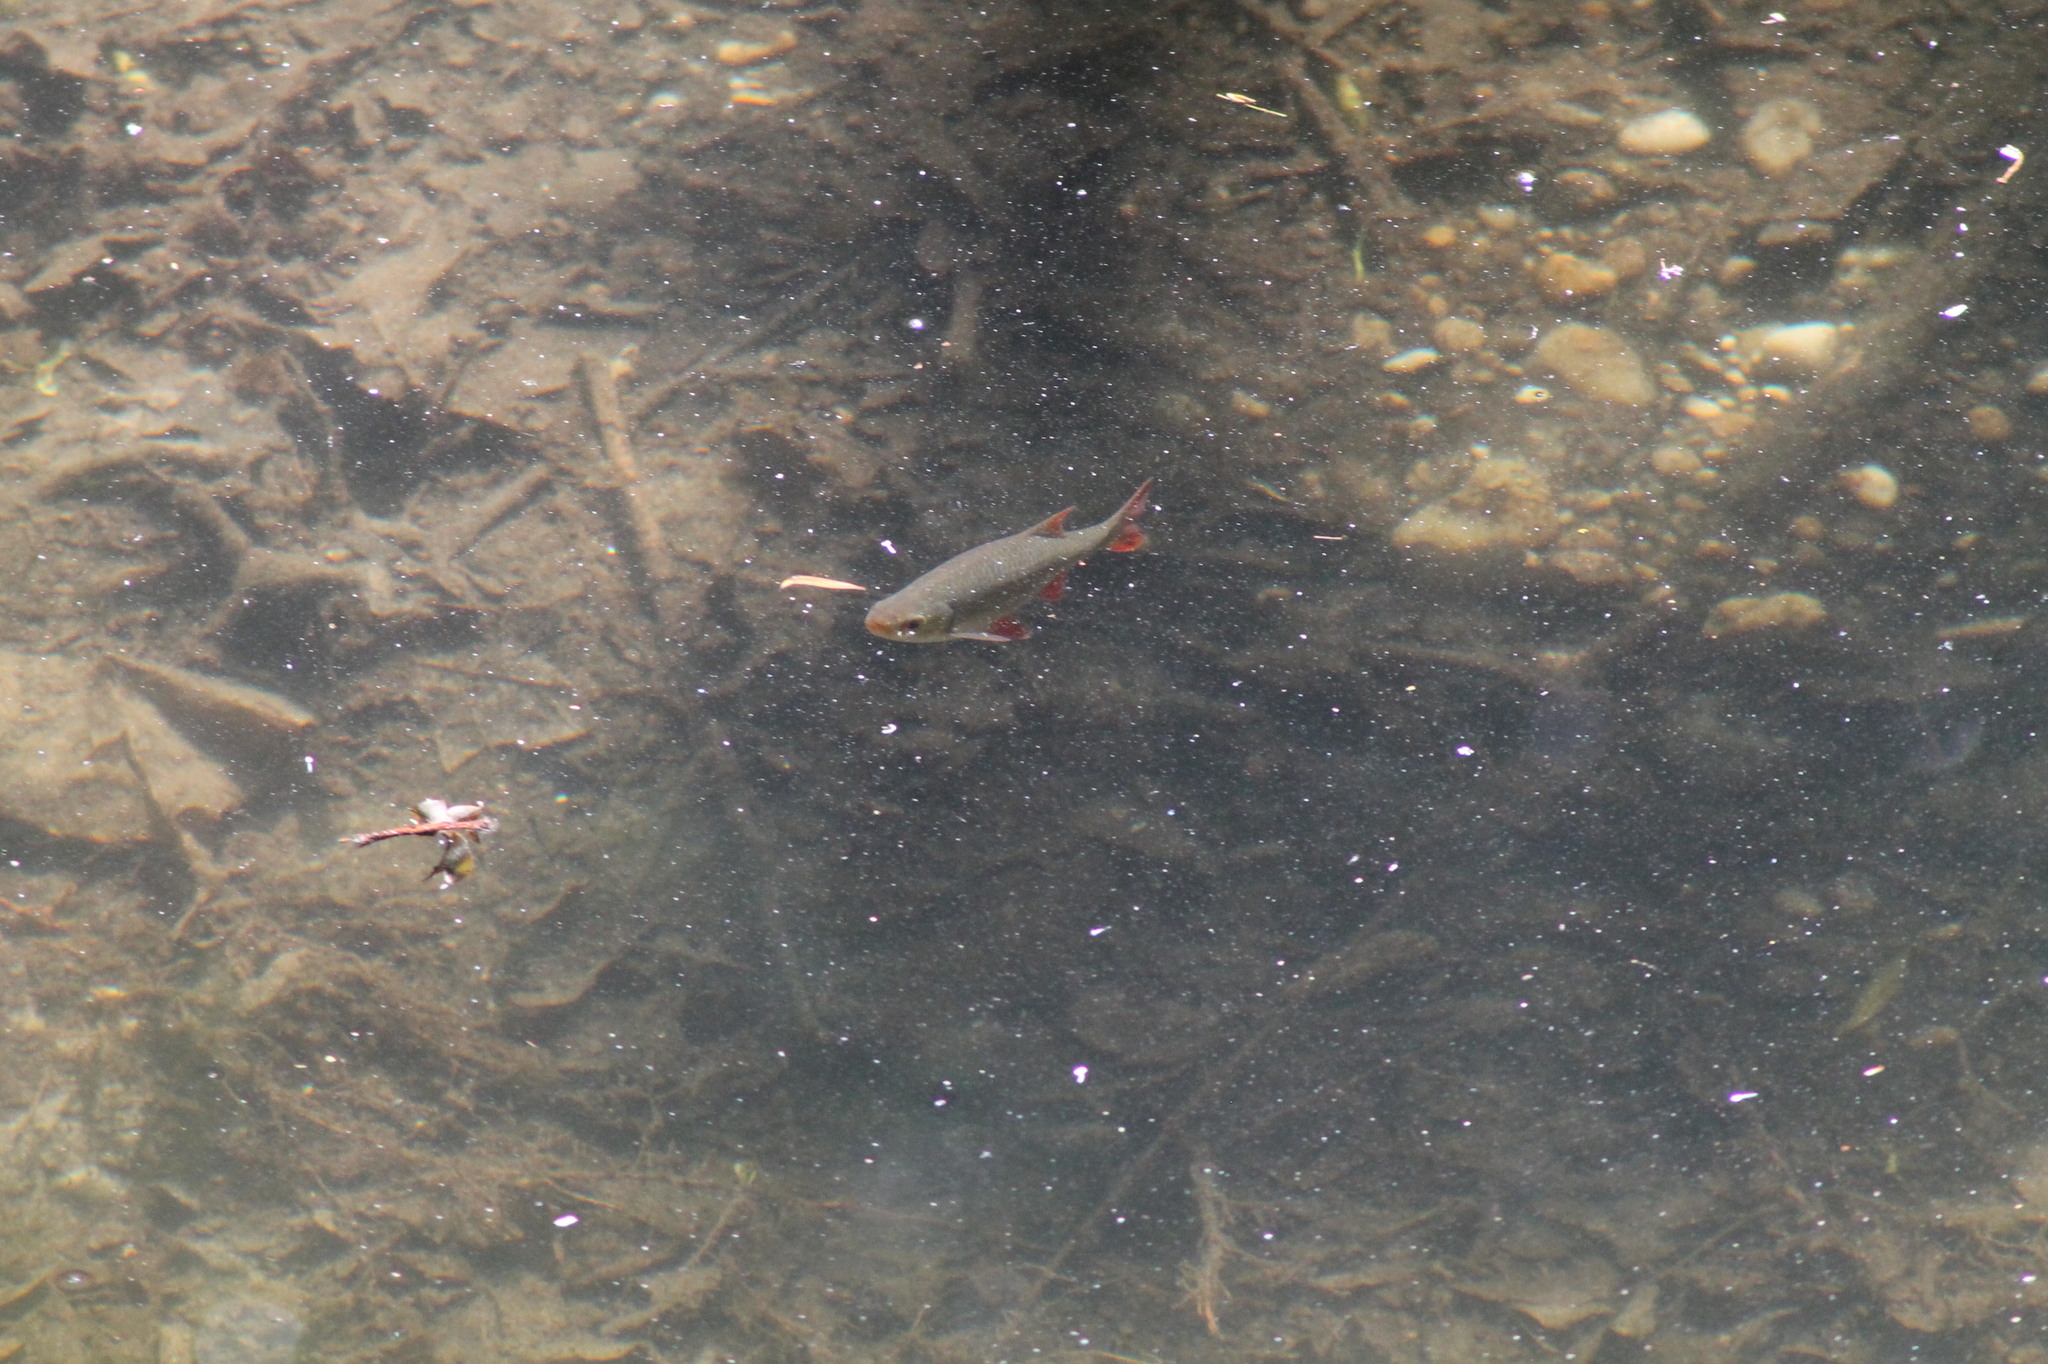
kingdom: Animalia
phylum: Chordata
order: Cypriniformes
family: Cyprinidae
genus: Scardinius
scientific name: Scardinius erythrophthalmus
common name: Rudd
